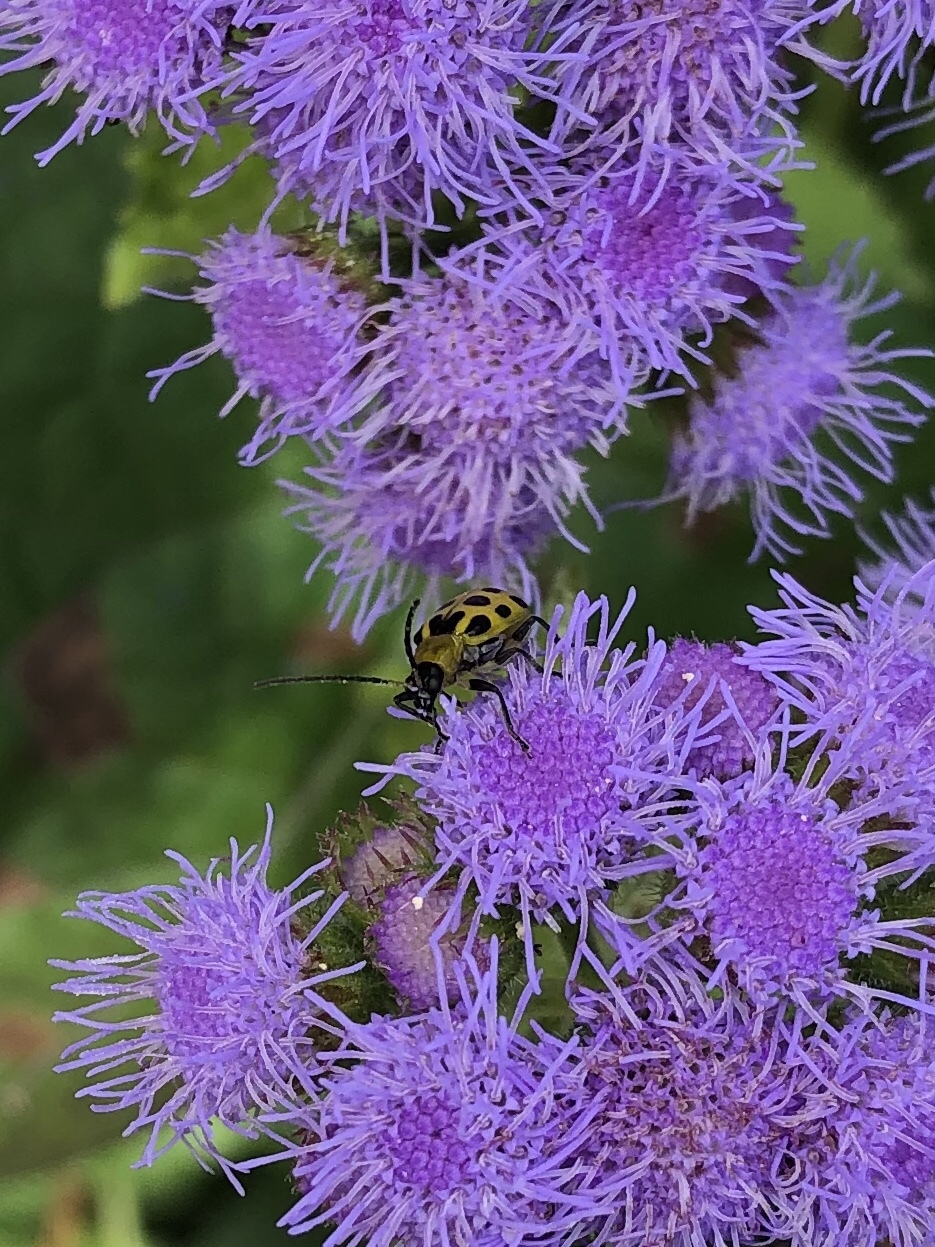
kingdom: Plantae
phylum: Tracheophyta
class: Magnoliopsida
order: Asterales
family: Asteraceae
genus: Conoclinium
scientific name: Conoclinium coelestinum
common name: Blue mistflower
